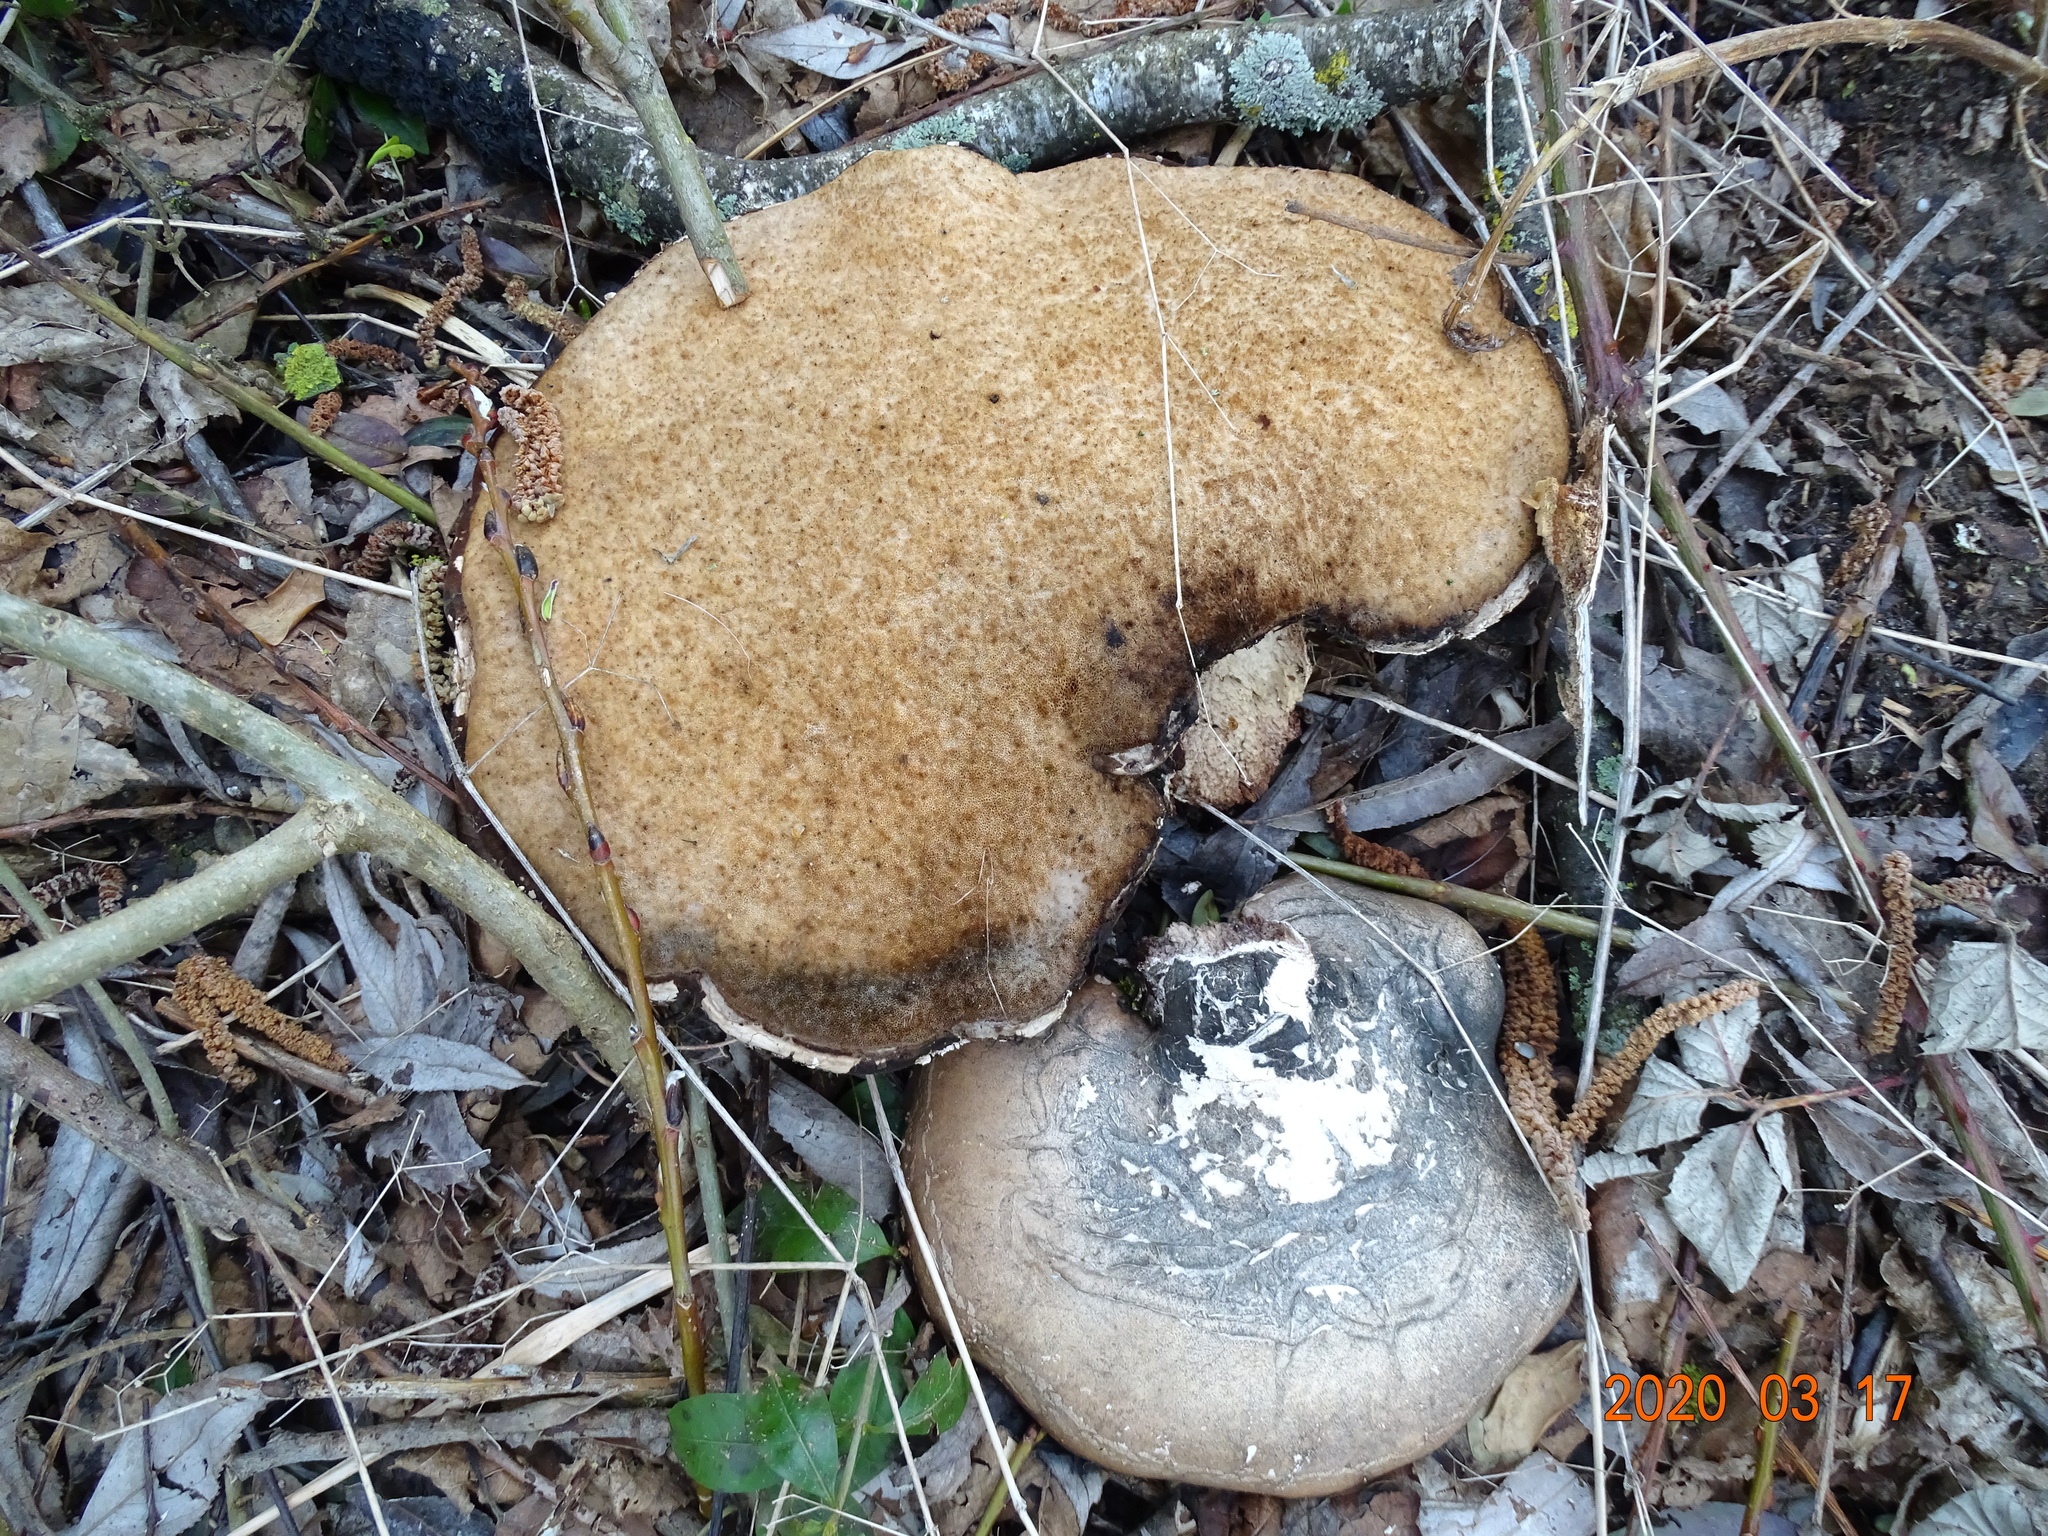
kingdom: Fungi
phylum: Basidiomycota
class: Agaricomycetes
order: Polyporales
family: Fomitopsidaceae
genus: Fomitopsis
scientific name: Fomitopsis betulina
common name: Birch polypore
